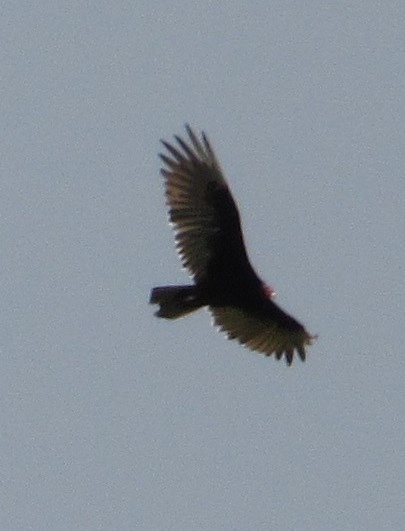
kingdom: Animalia
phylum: Chordata
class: Aves
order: Accipitriformes
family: Cathartidae
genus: Cathartes
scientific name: Cathartes aura
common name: Turkey vulture
